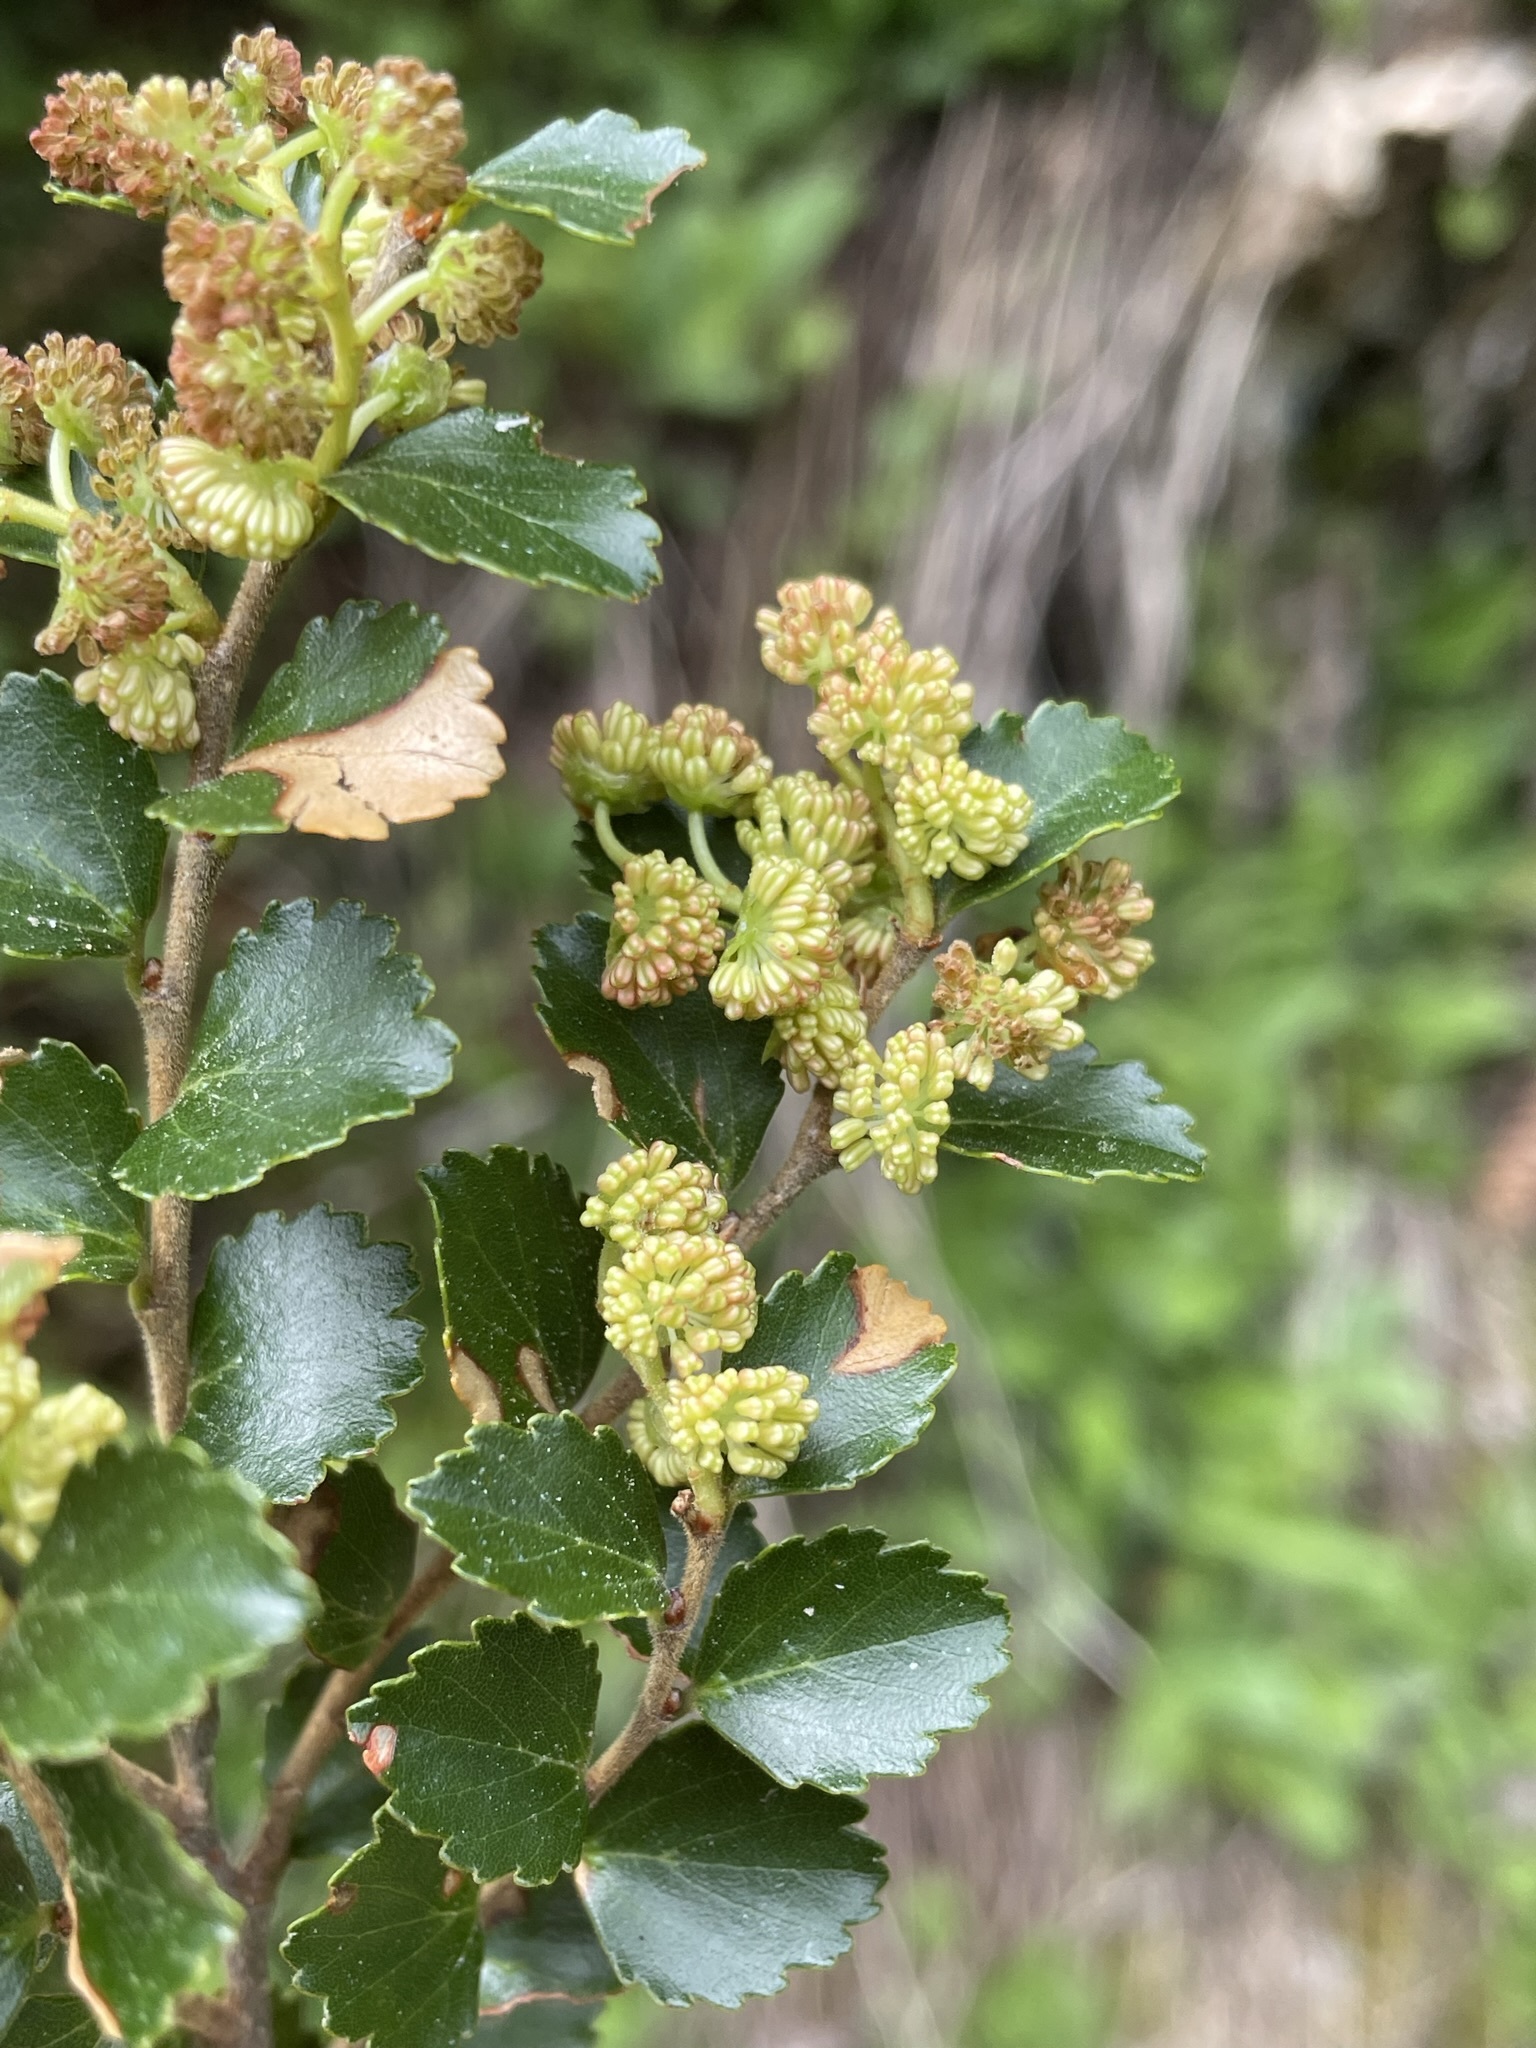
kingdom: Plantae
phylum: Tracheophyta
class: Magnoliopsida
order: Fagales
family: Nothofagaceae
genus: Nothofagus
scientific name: Nothofagus menziesii
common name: Silver beech
